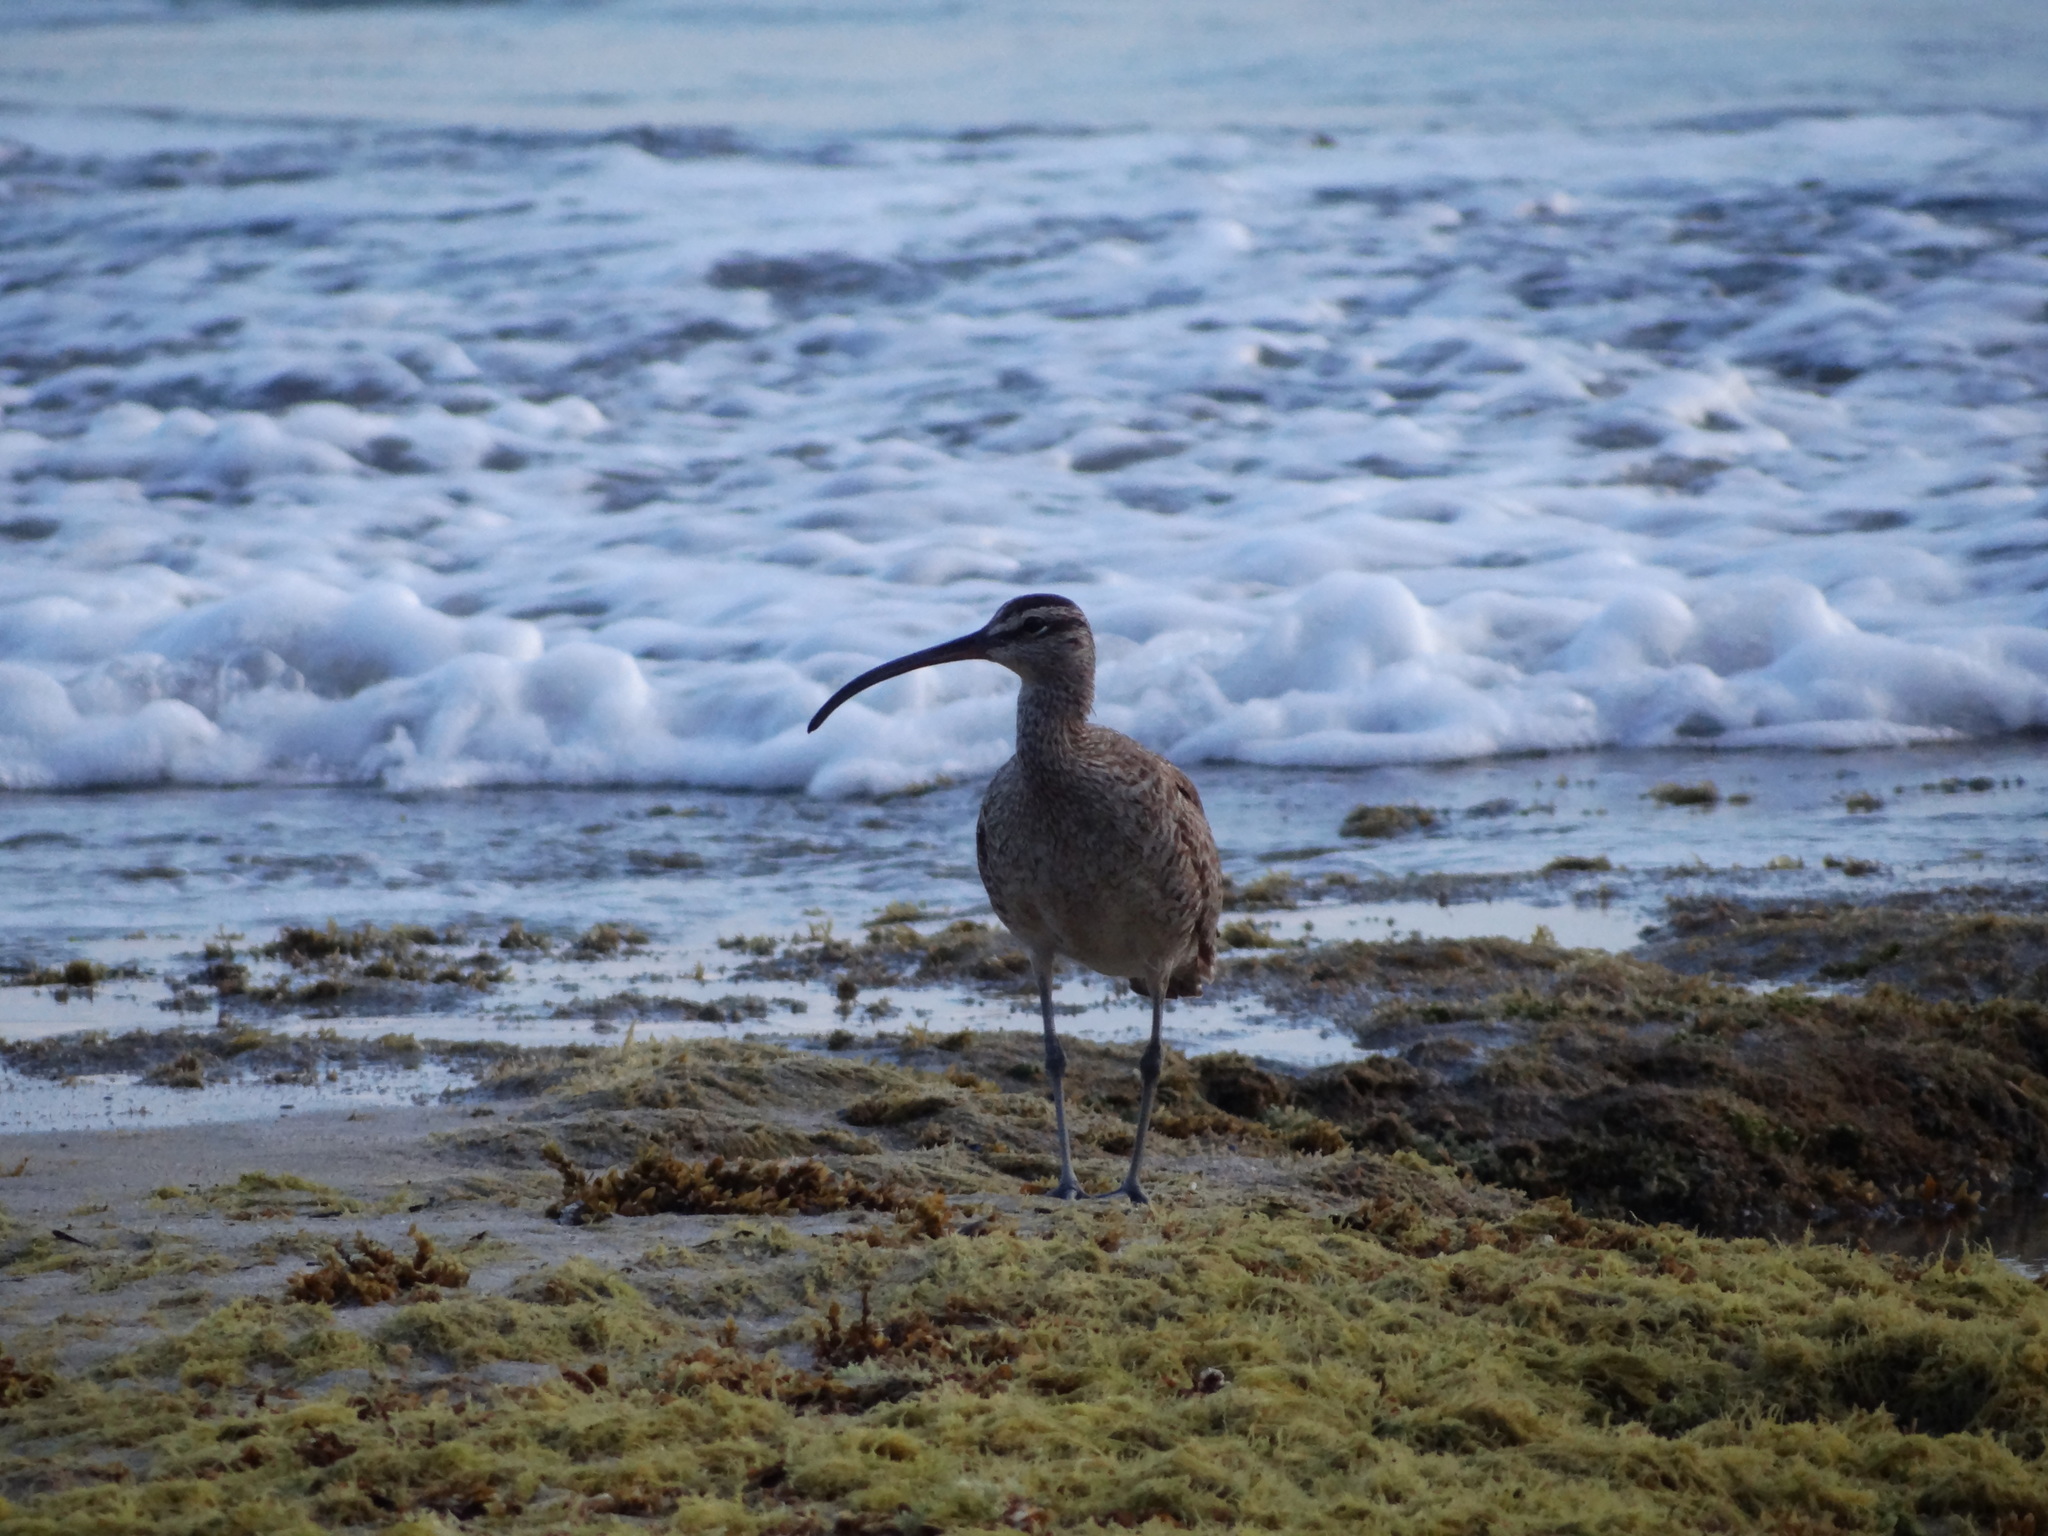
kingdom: Animalia
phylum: Chordata
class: Aves
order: Charadriiformes
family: Scolopacidae
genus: Numenius
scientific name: Numenius phaeopus
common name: Whimbrel
